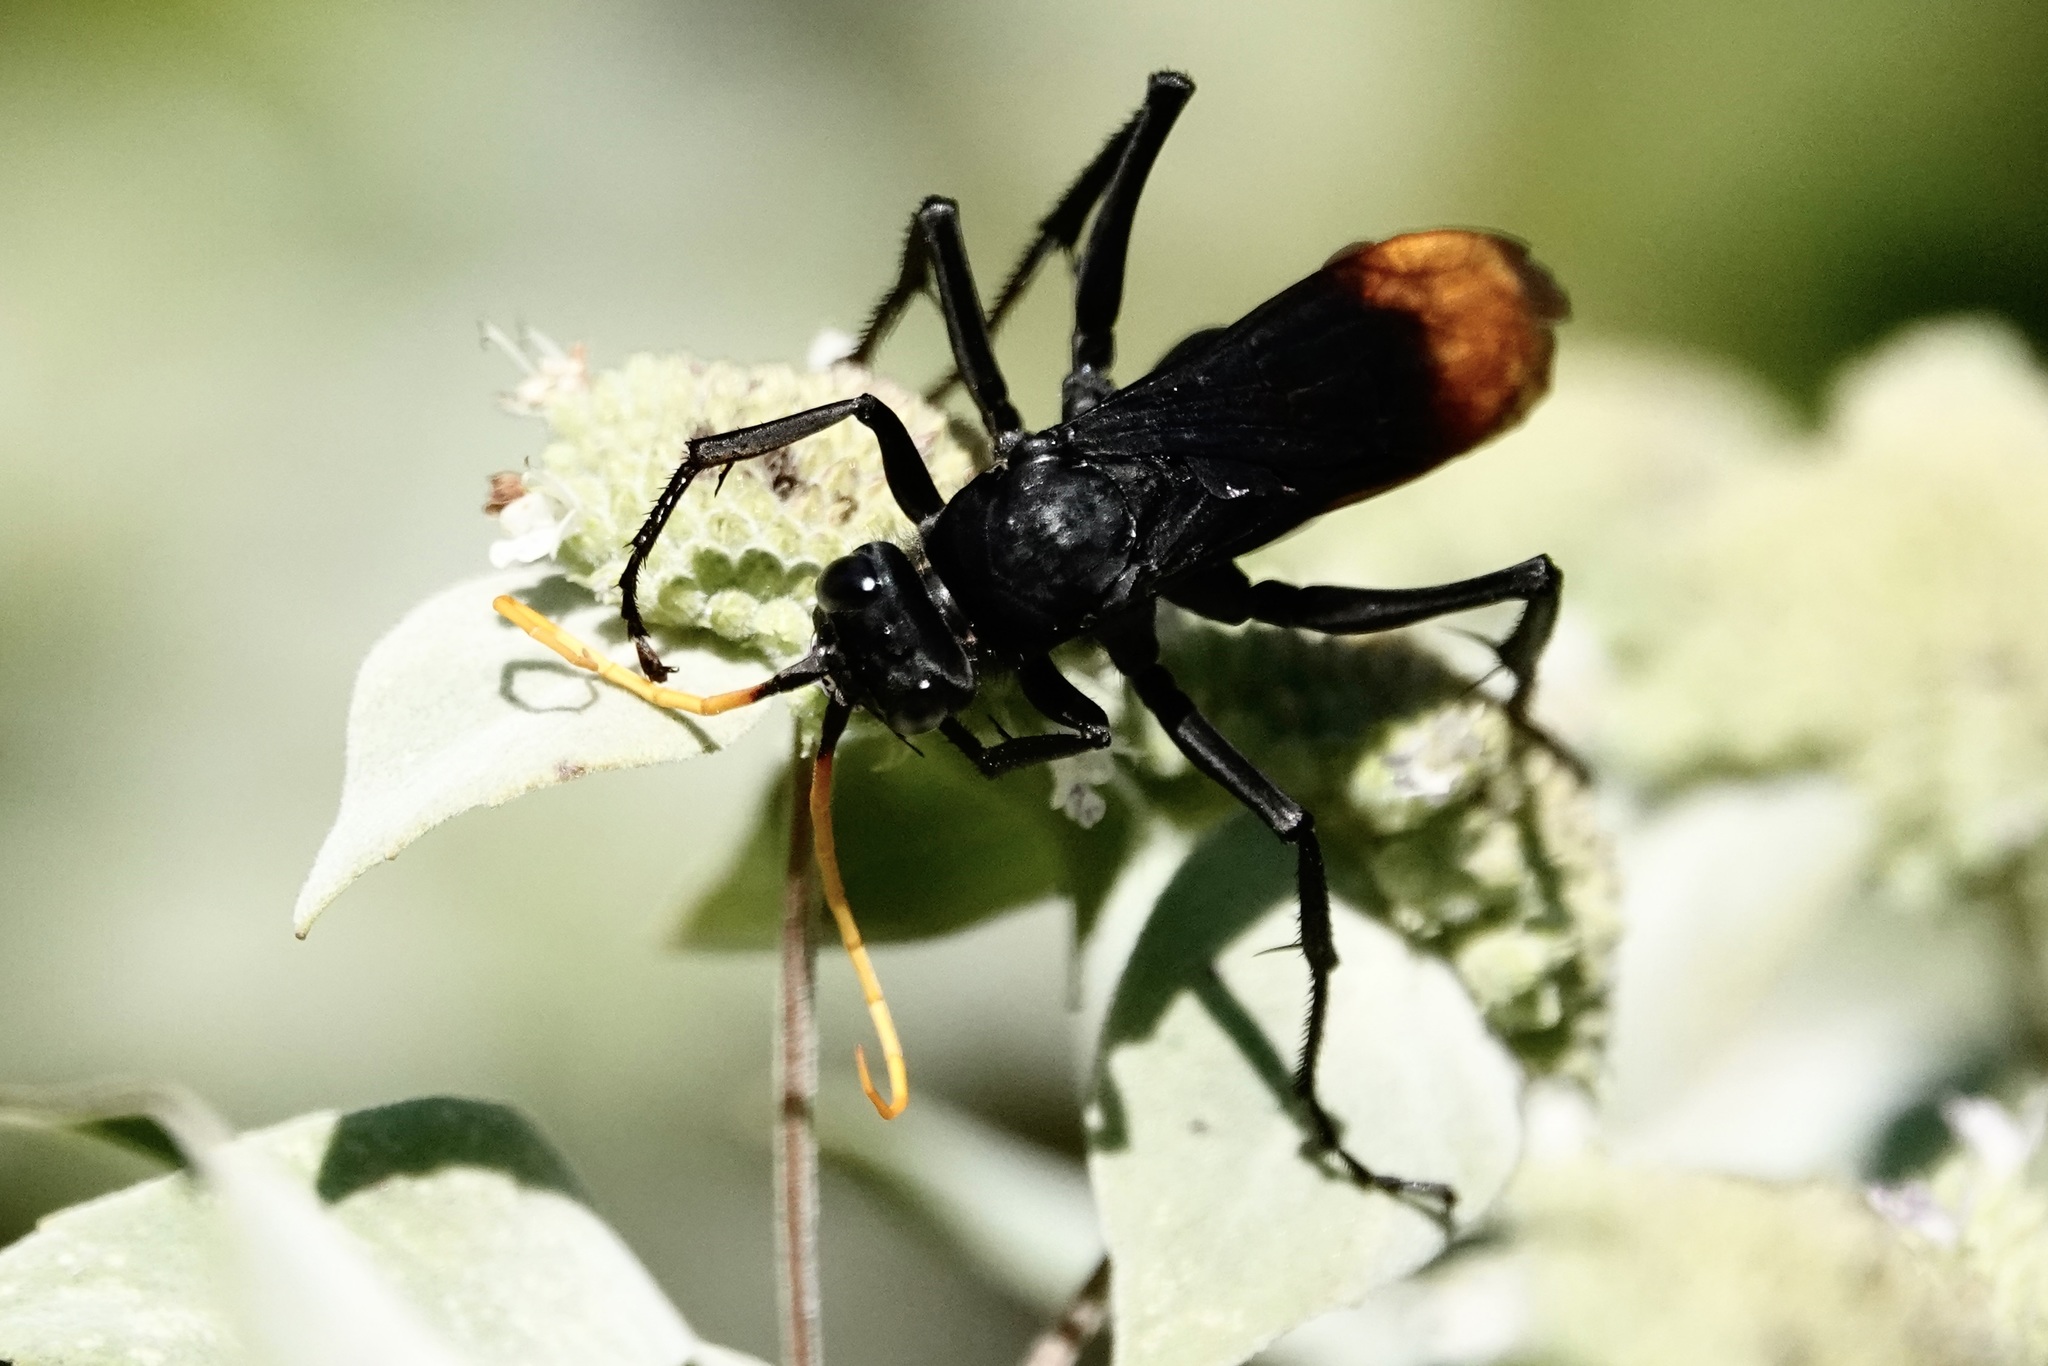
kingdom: Animalia
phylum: Arthropoda
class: Insecta
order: Hymenoptera
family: Pompilidae
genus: Entypus
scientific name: Entypus unifasciatus
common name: Eastern tawny-horned spider wasp
